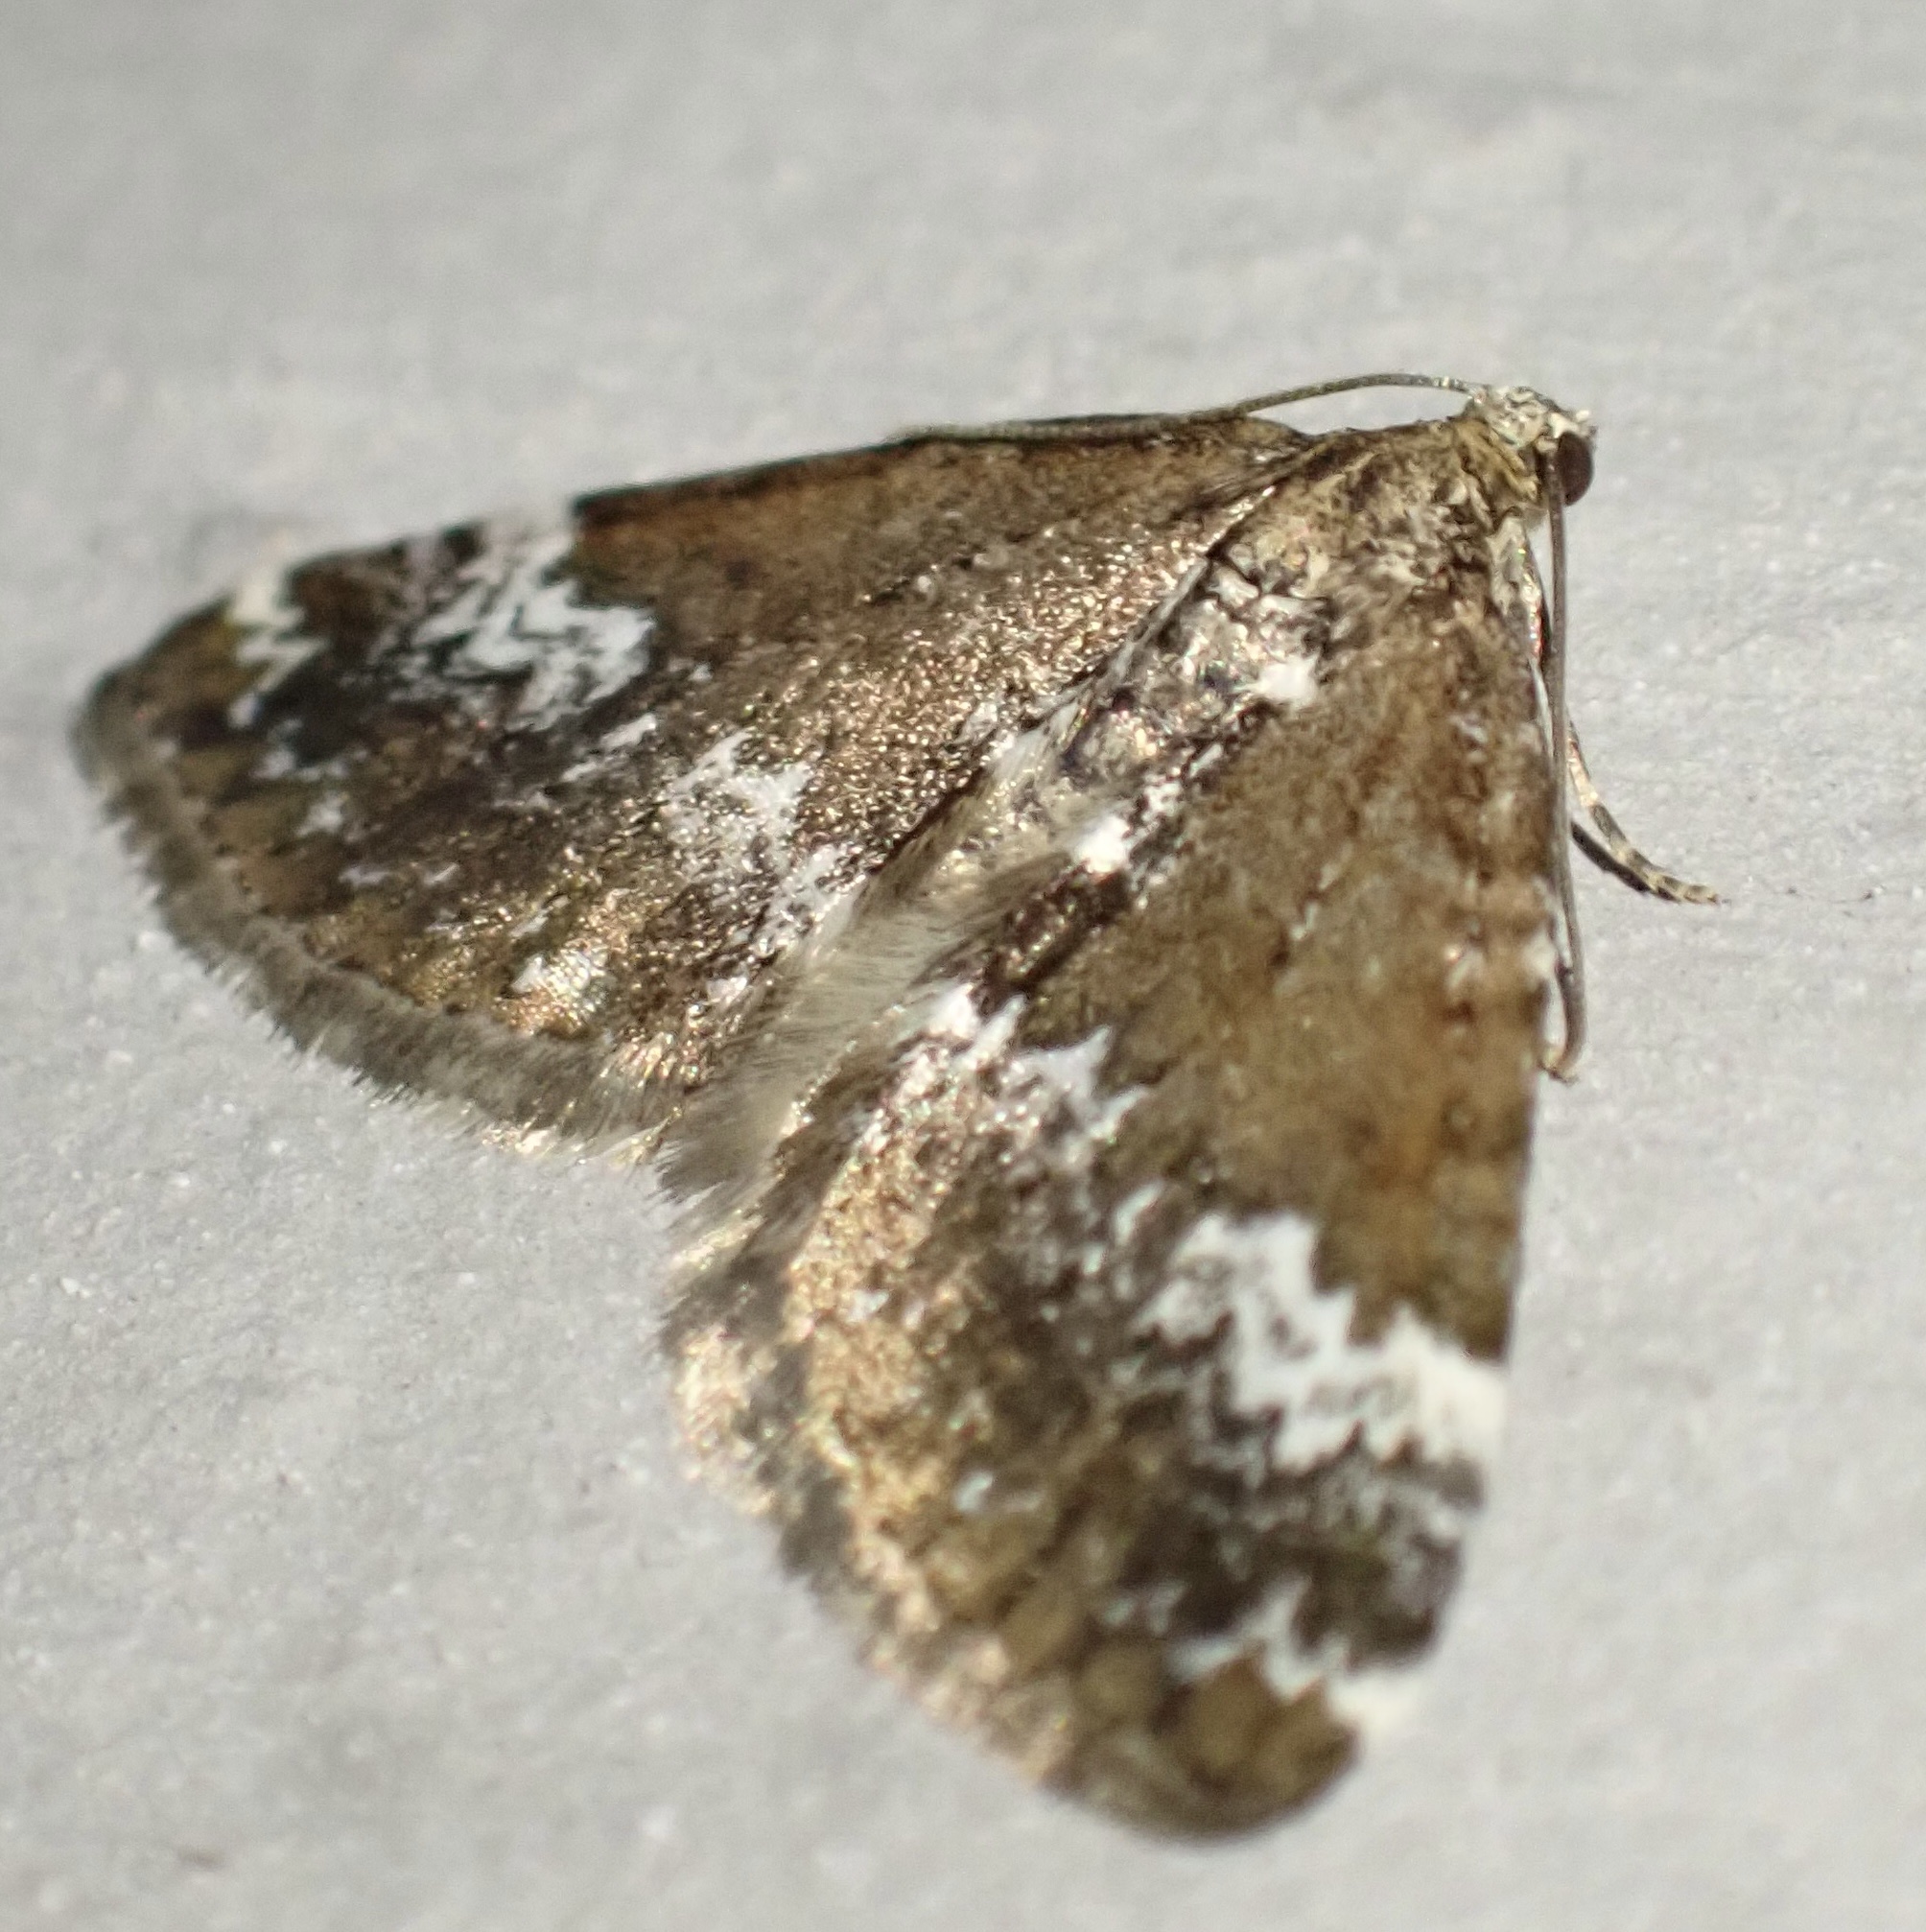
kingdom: Animalia
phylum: Arthropoda
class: Insecta
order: Lepidoptera
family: Geometridae
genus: Perizoma
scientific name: Perizoma alchemillata
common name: Small rivulet
